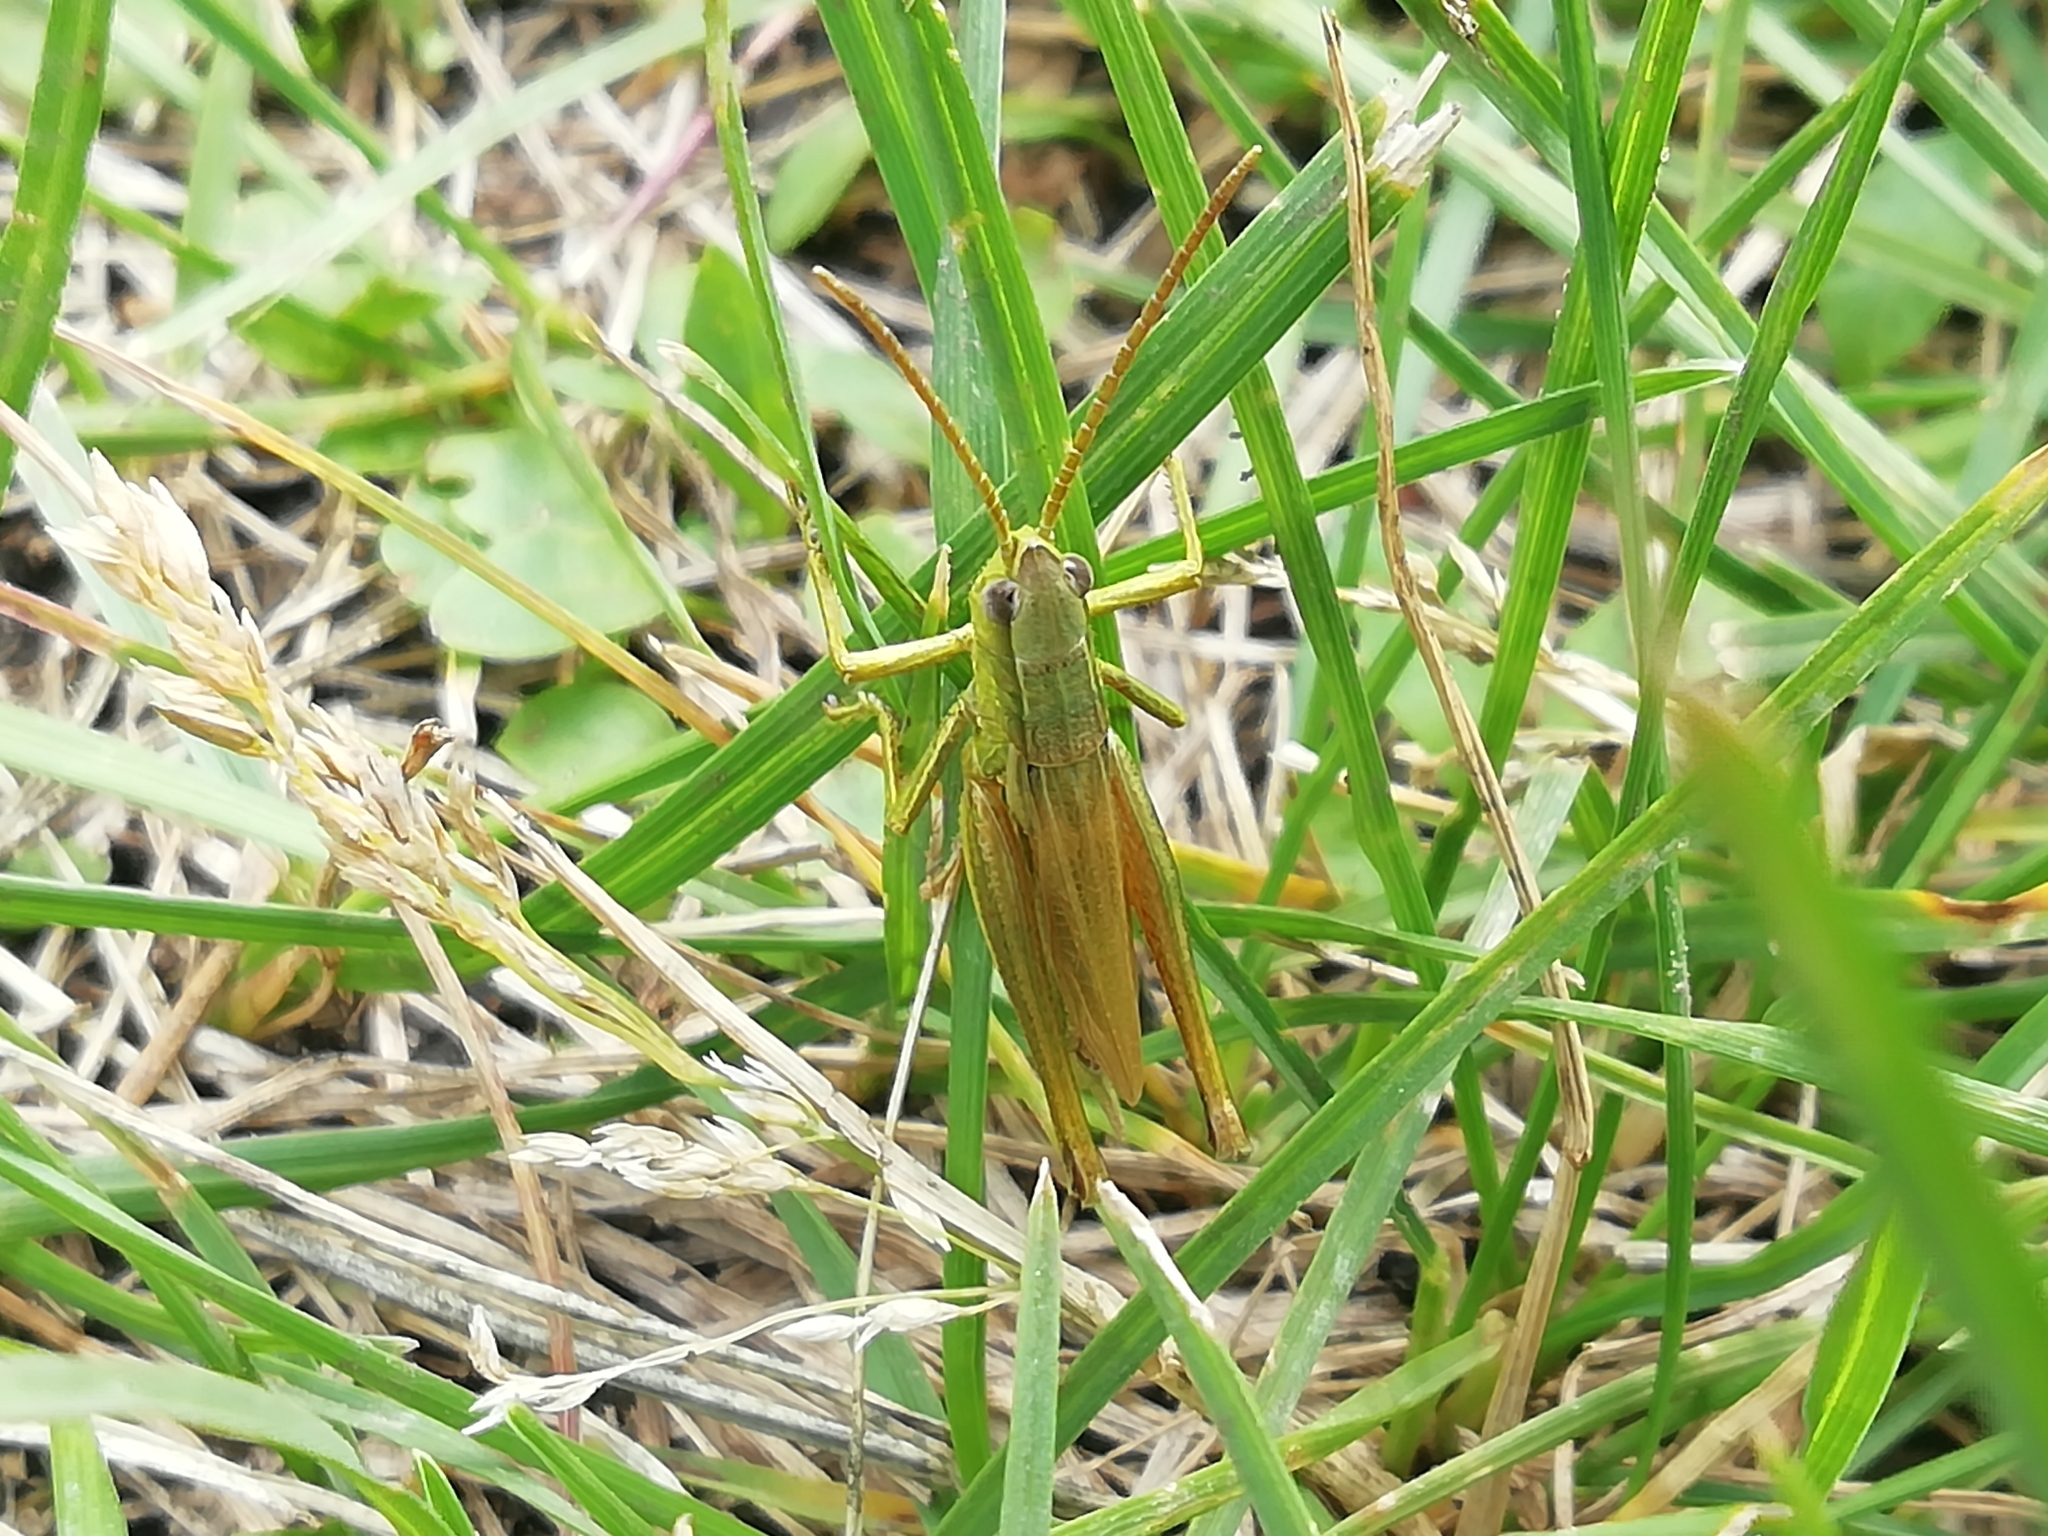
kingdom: Animalia
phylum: Arthropoda
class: Insecta
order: Orthoptera
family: Acrididae
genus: Chrysochraon
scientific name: Chrysochraon dispar
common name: Large gold grasshopper
